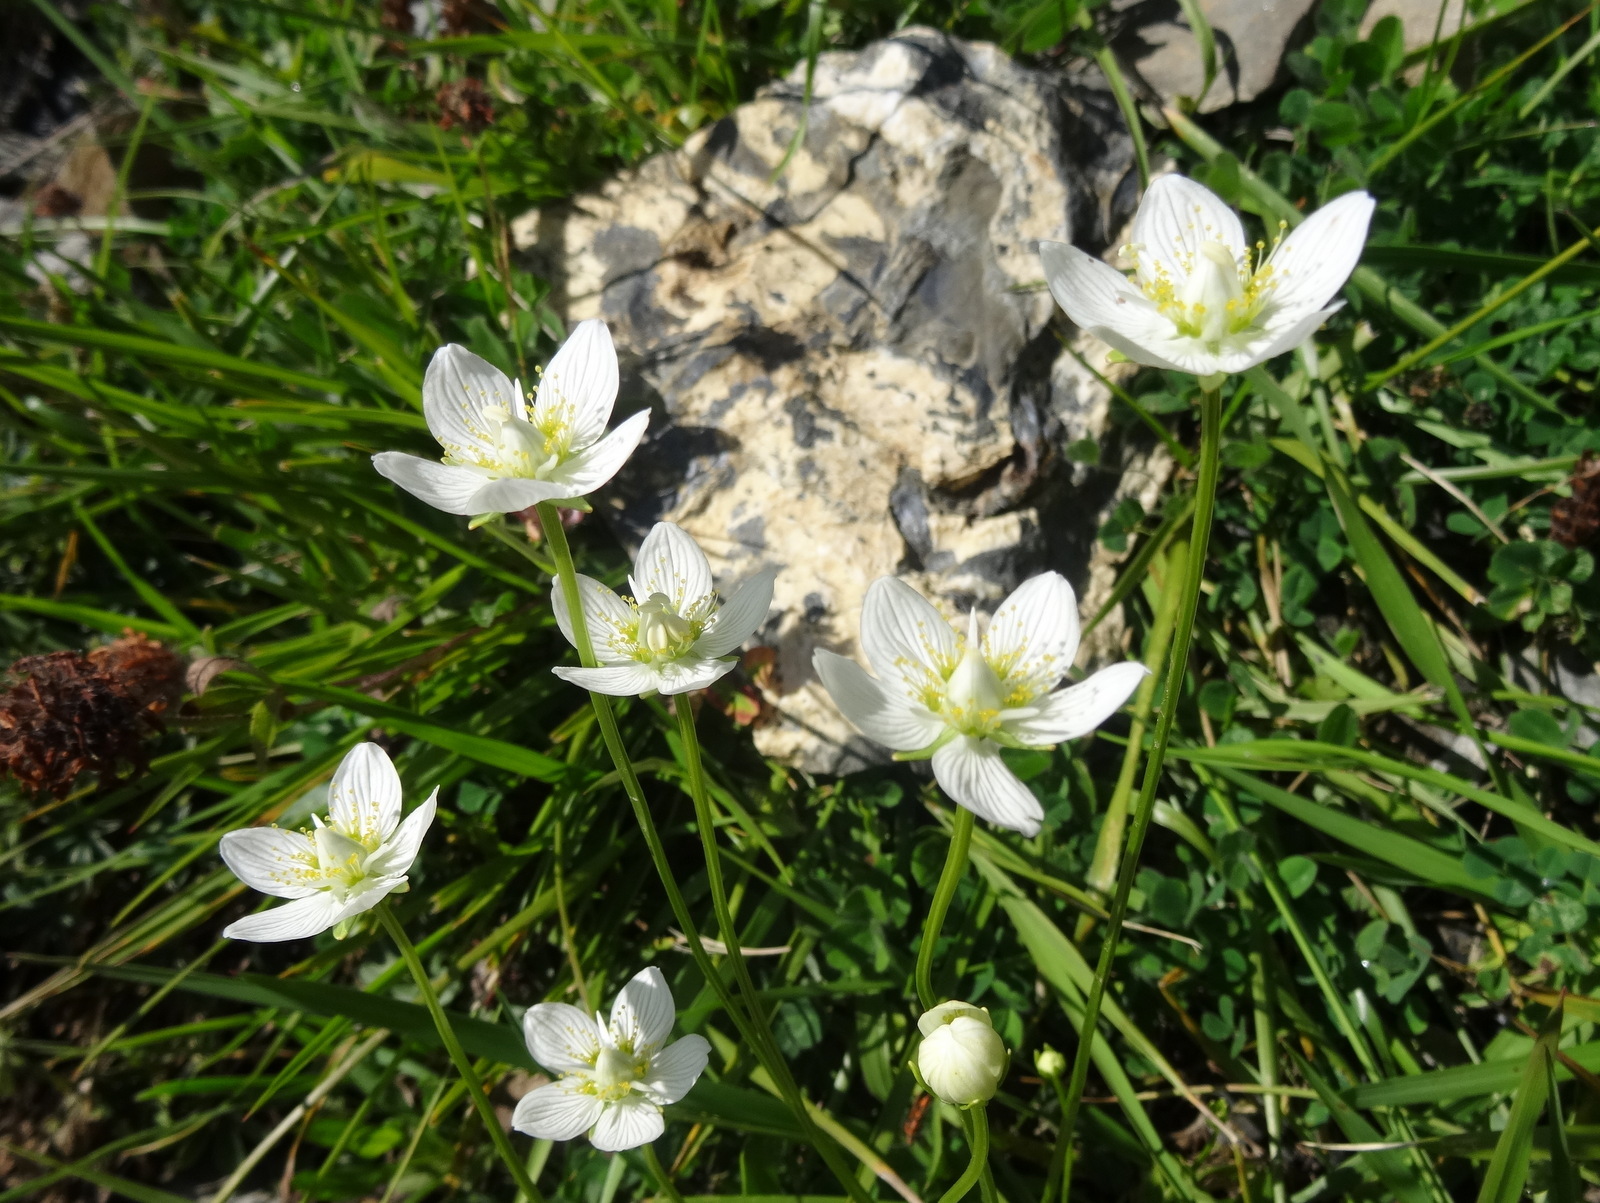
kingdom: Plantae
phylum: Tracheophyta
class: Magnoliopsida
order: Celastrales
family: Parnassiaceae
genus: Parnassia
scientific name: Parnassia palustris
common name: Grass-of-parnassus
